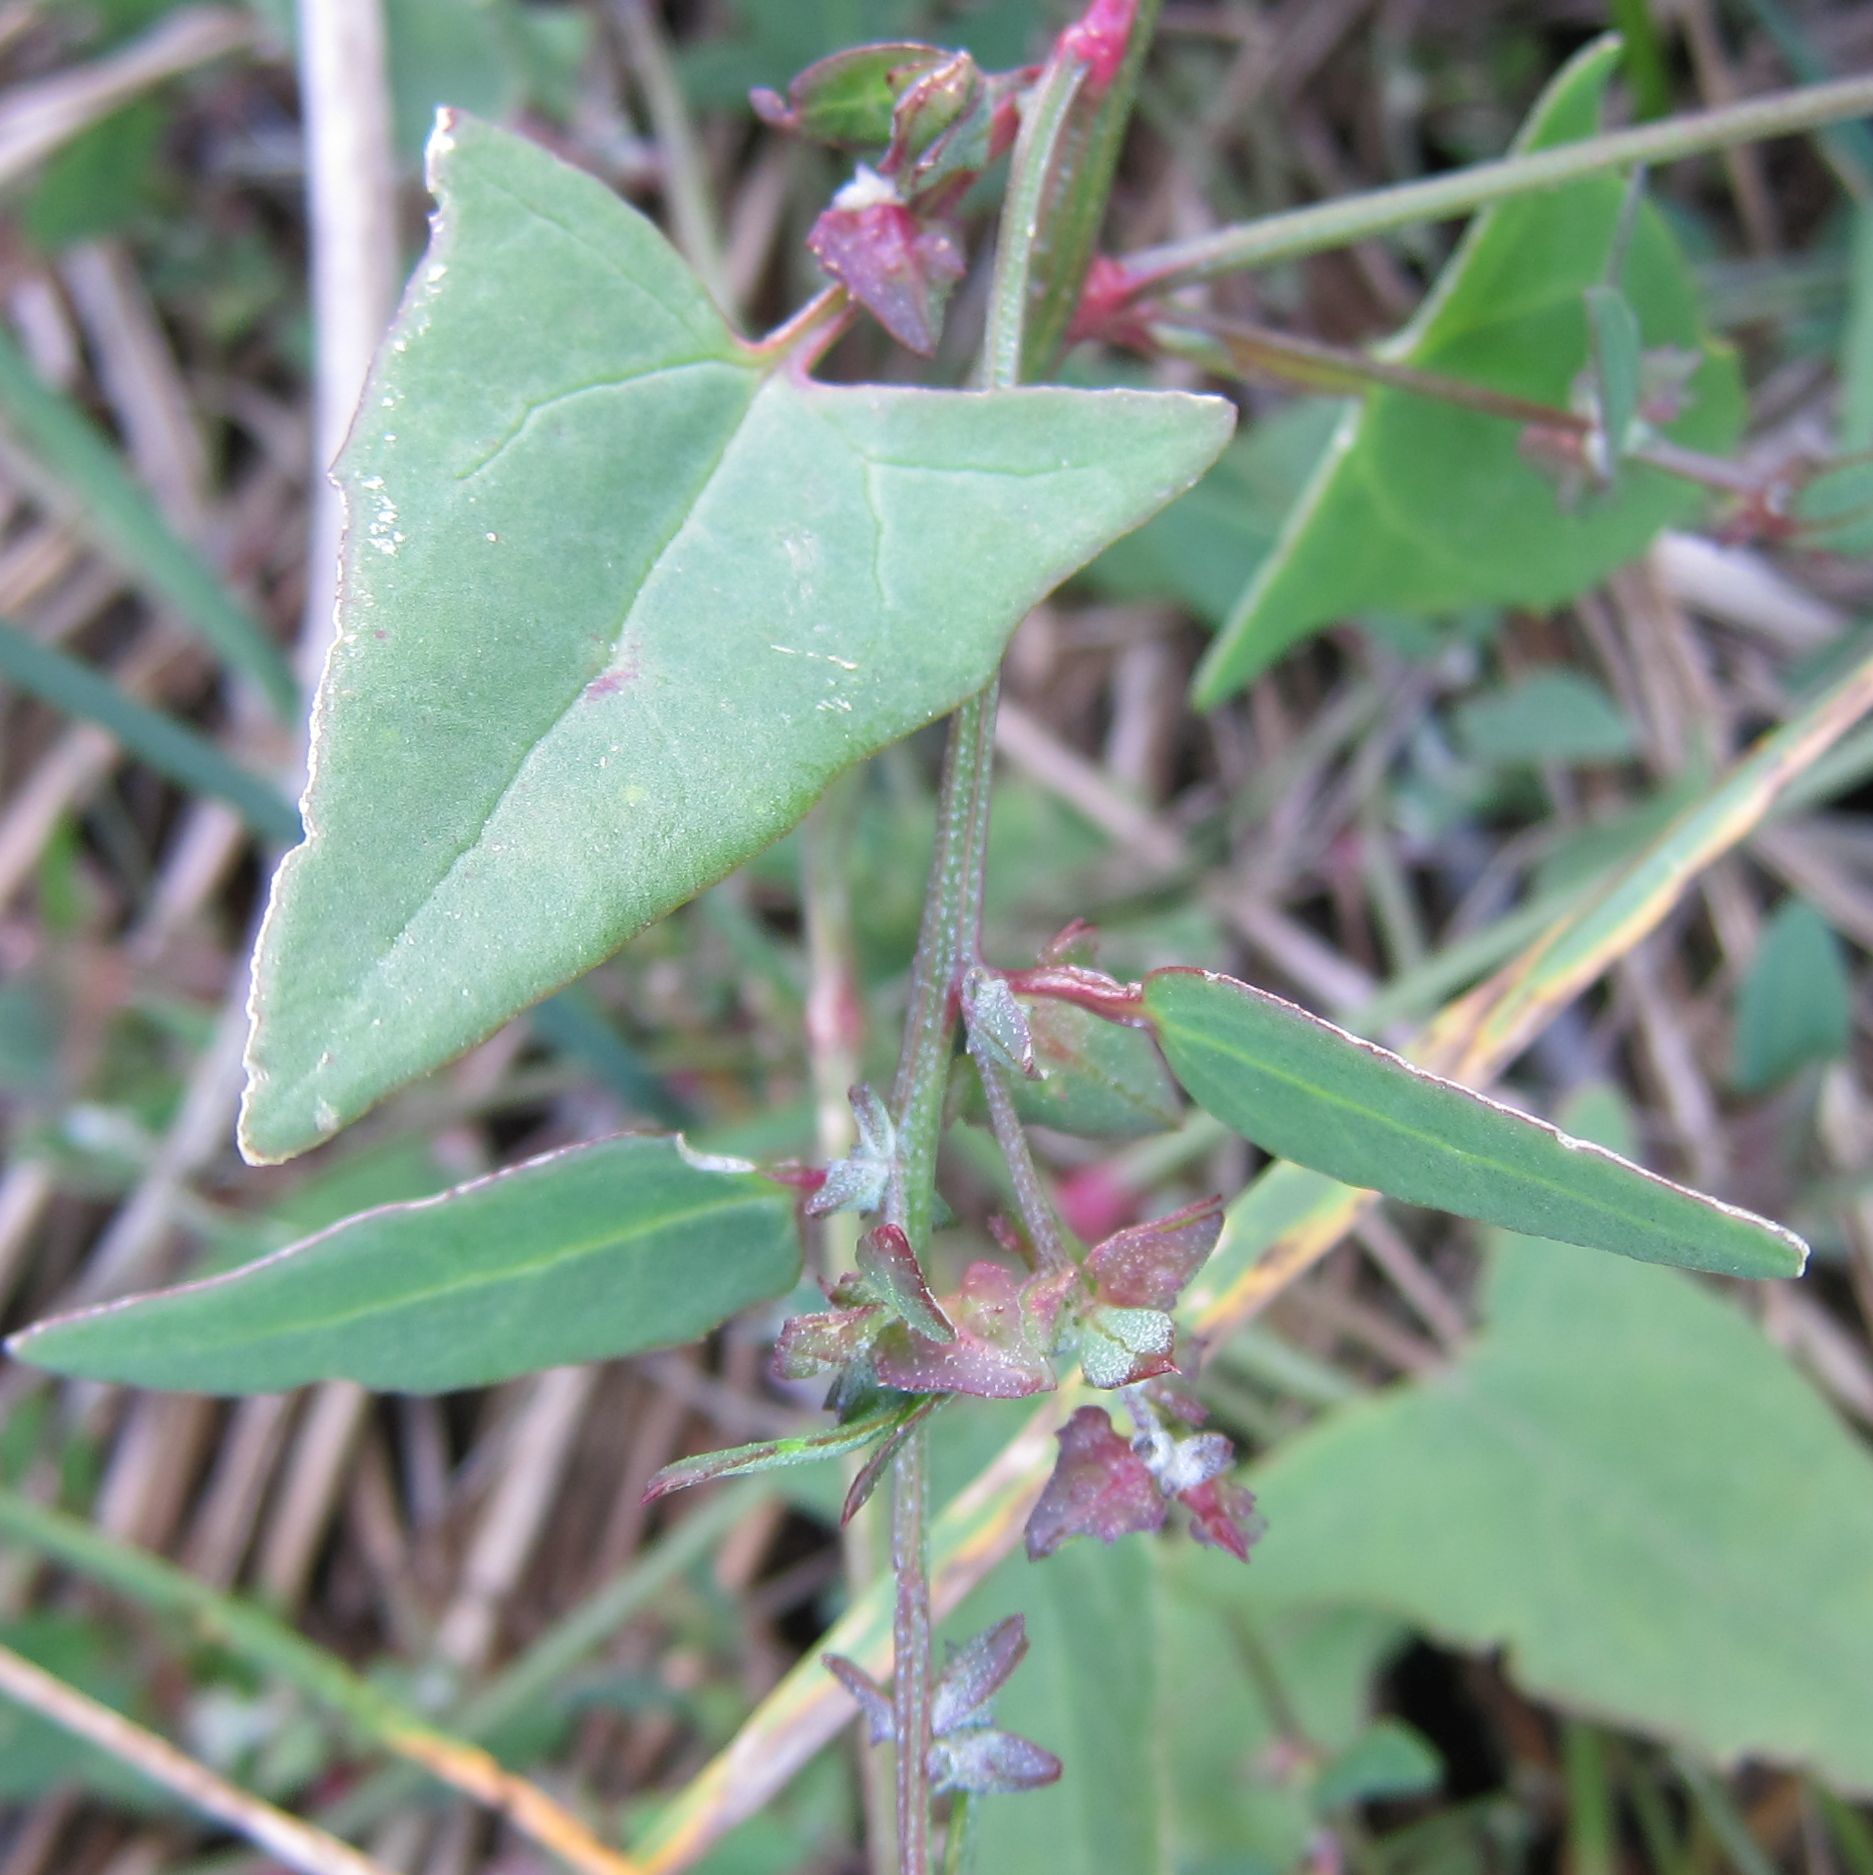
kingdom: Plantae
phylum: Tracheophyta
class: Magnoliopsida
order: Caryophyllales
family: Amaranthaceae
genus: Atriplex
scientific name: Atriplex prostrata
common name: Spear-leaved orache
